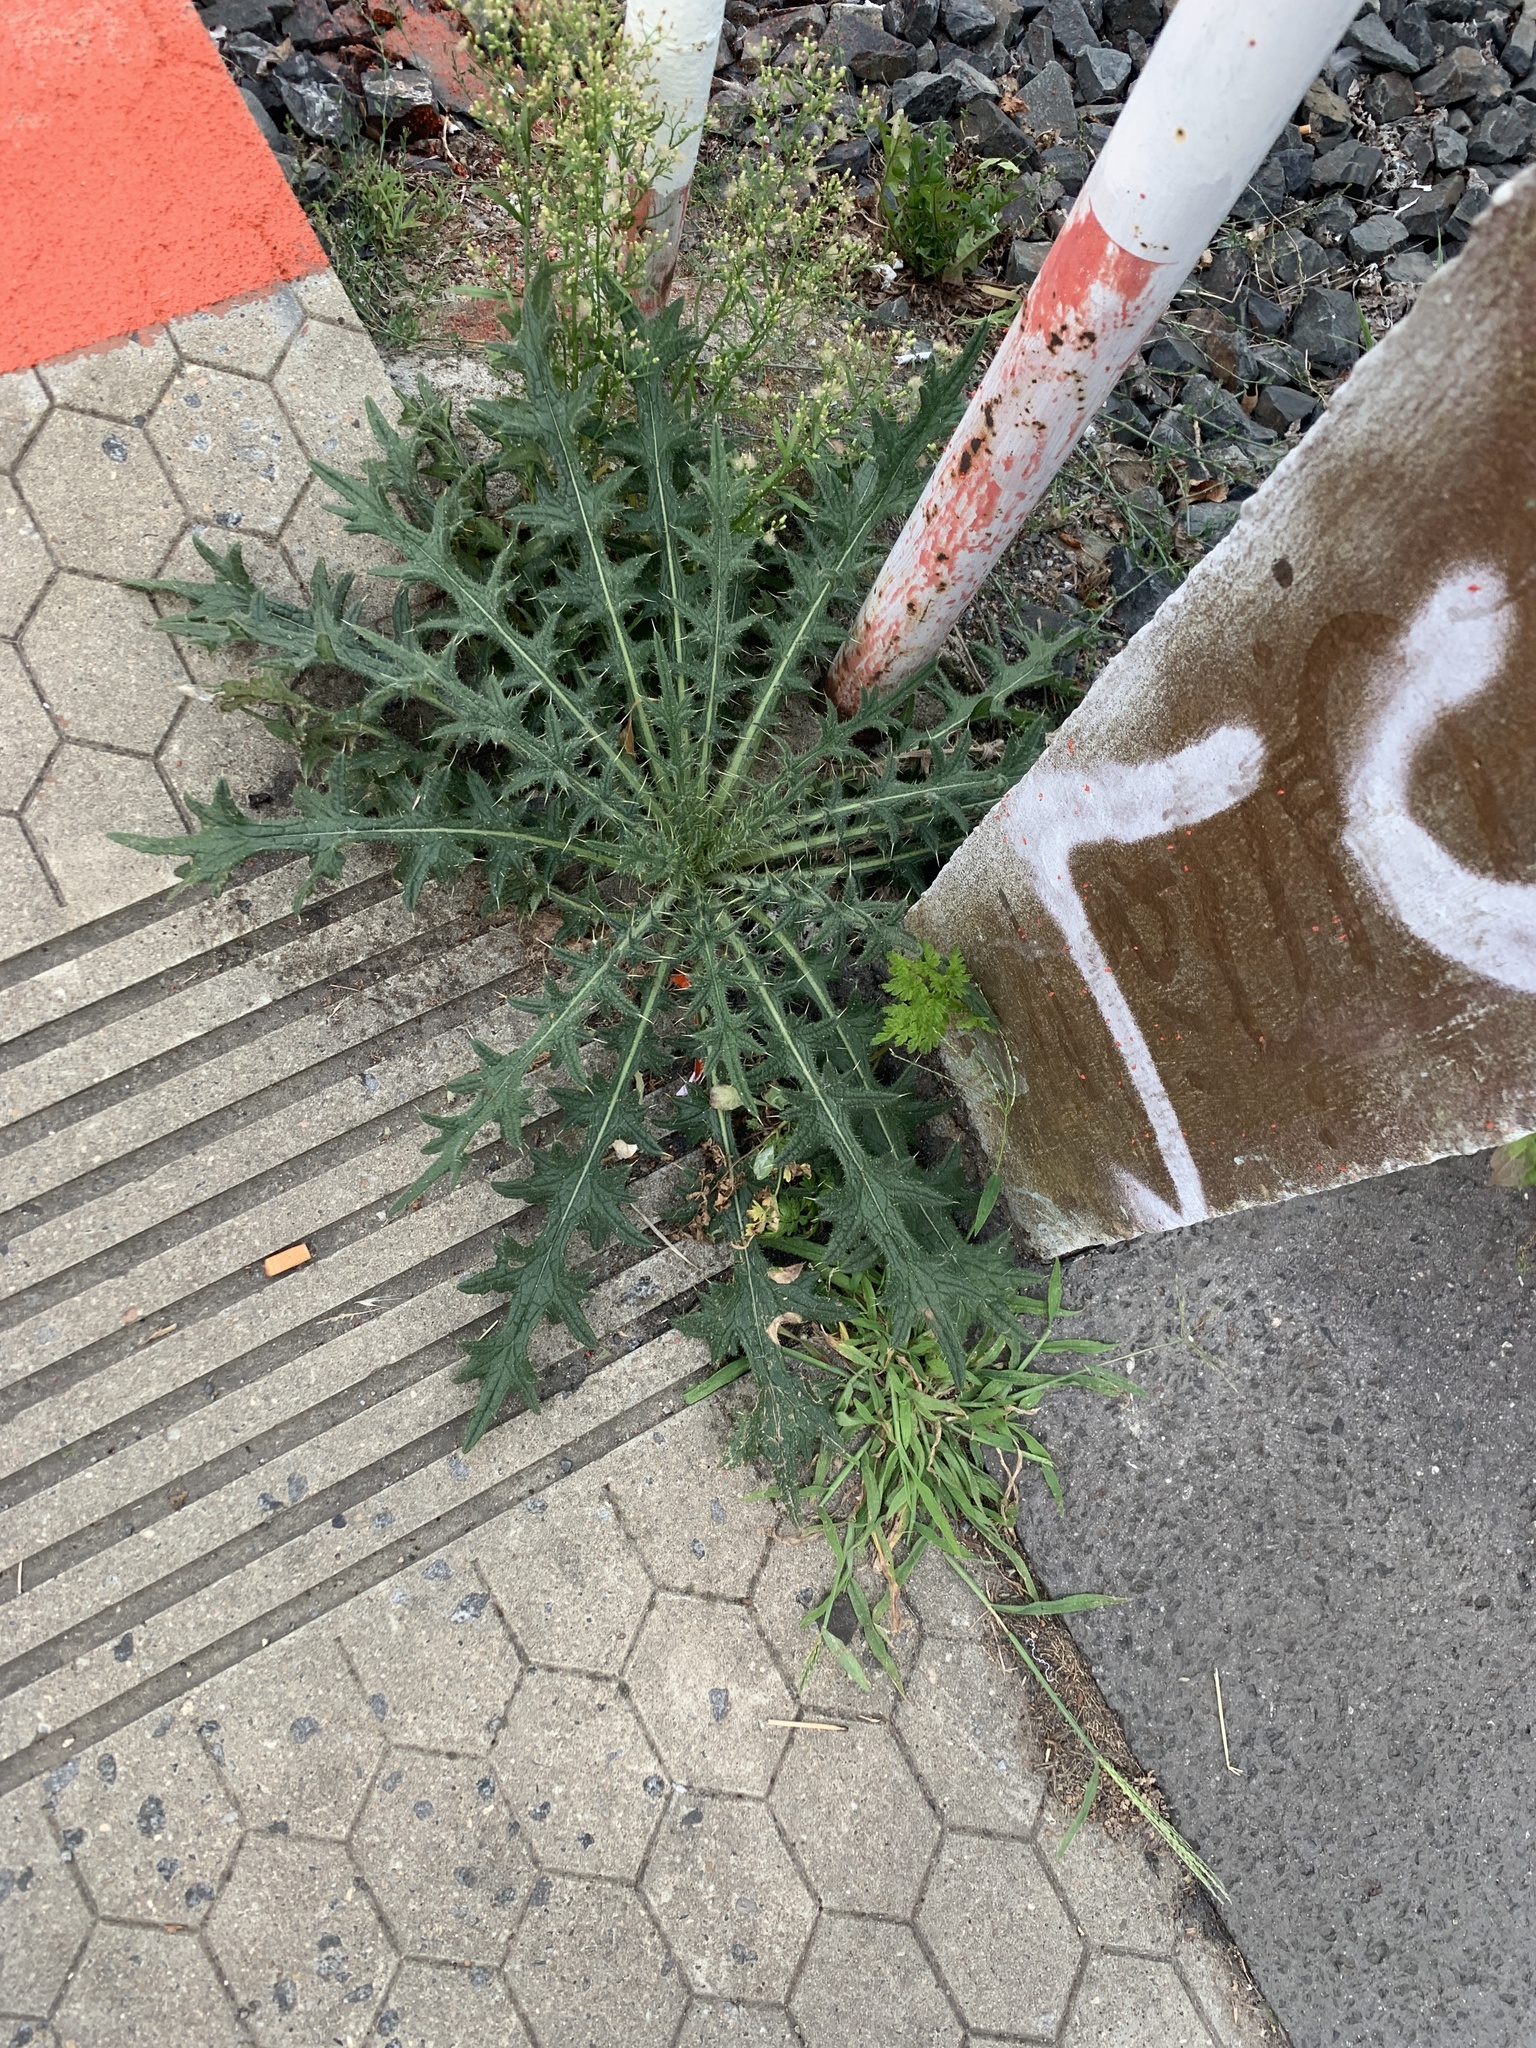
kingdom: Plantae
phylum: Tracheophyta
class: Magnoliopsida
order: Asterales
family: Asteraceae
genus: Cirsium
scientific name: Cirsium vulgare
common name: Bull thistle
